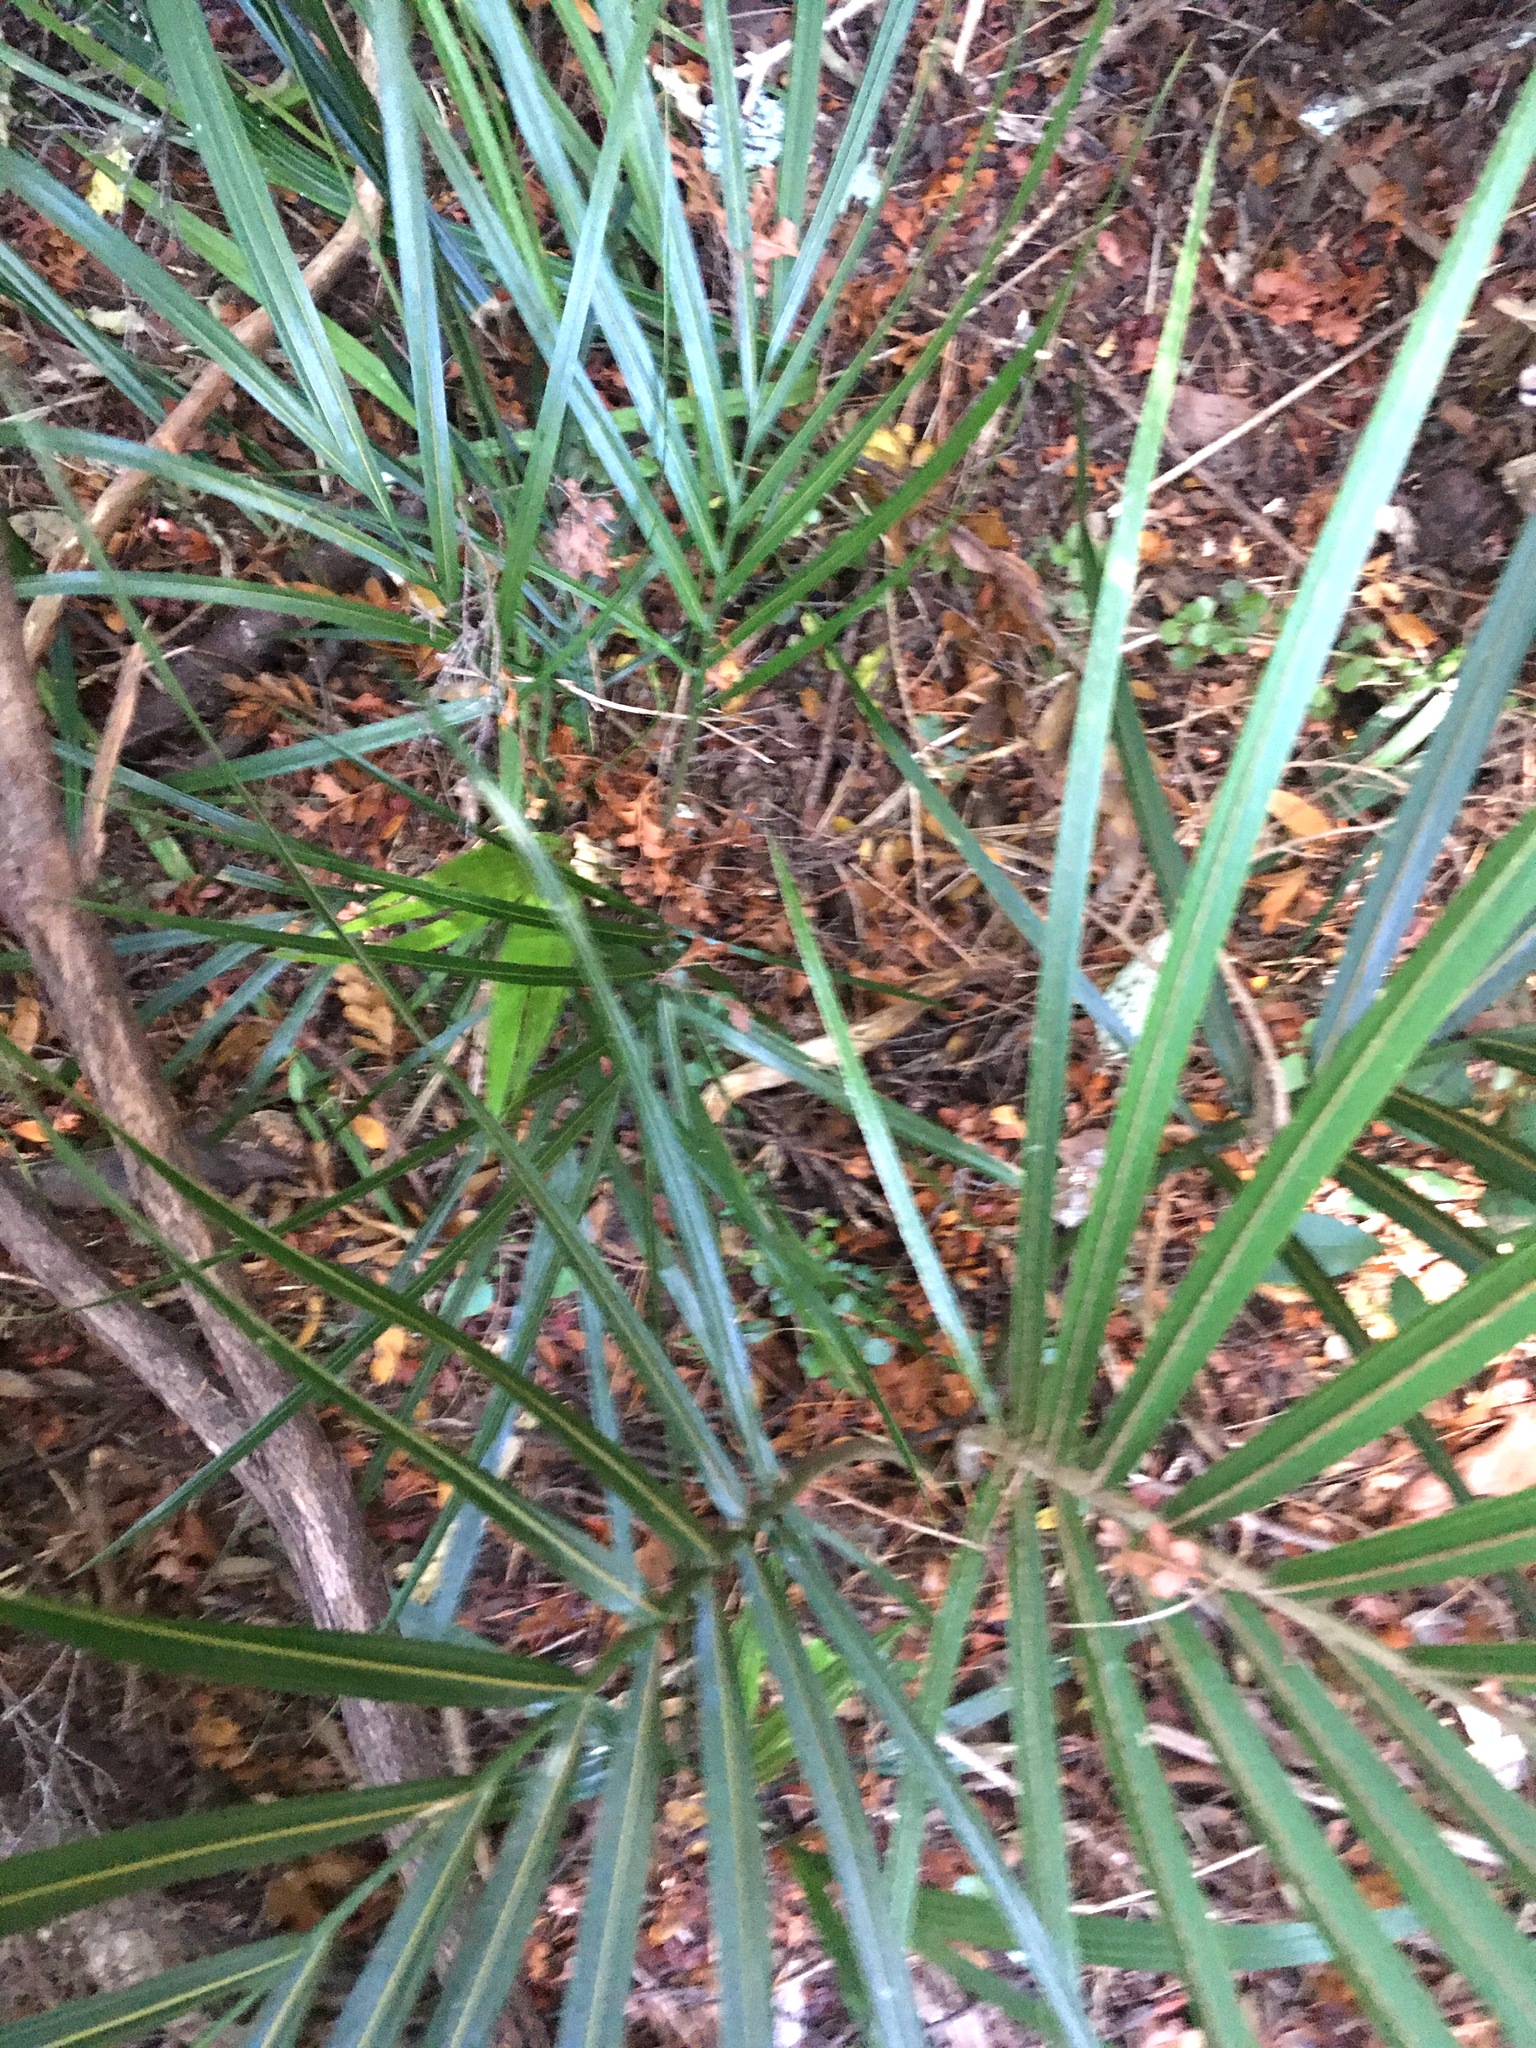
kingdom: Plantae
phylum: Tracheophyta
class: Liliopsida
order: Arecales
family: Arecaceae
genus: Rhopalostylis
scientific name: Rhopalostylis sapida
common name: Feather-duster palm
